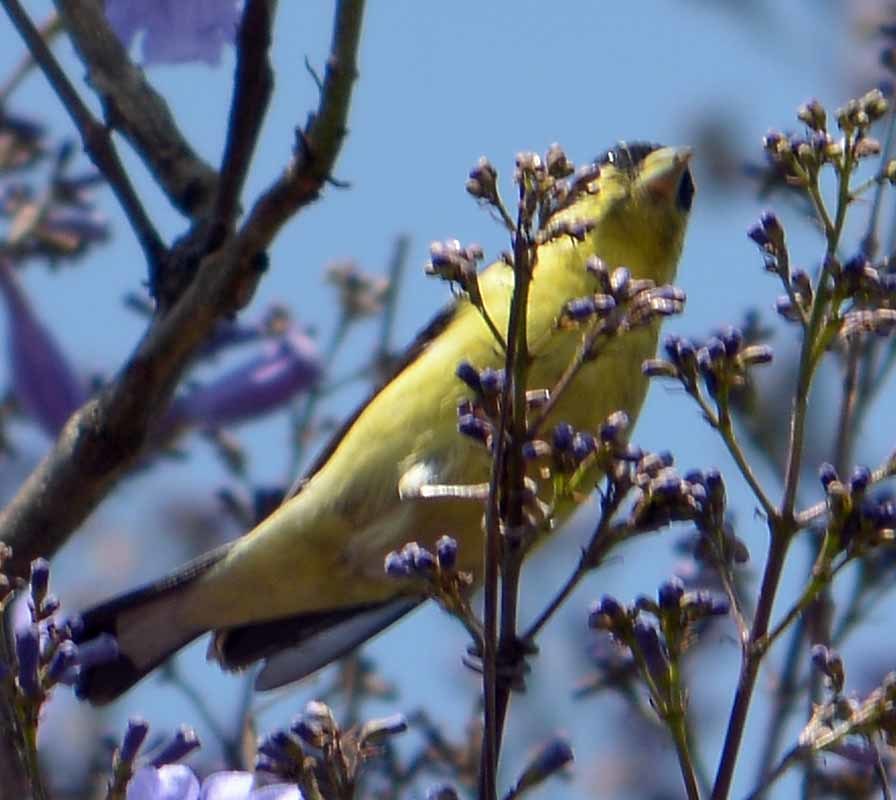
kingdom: Animalia
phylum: Chordata
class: Aves
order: Passeriformes
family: Fringillidae
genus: Spinus
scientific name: Spinus psaltria
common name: Lesser goldfinch
